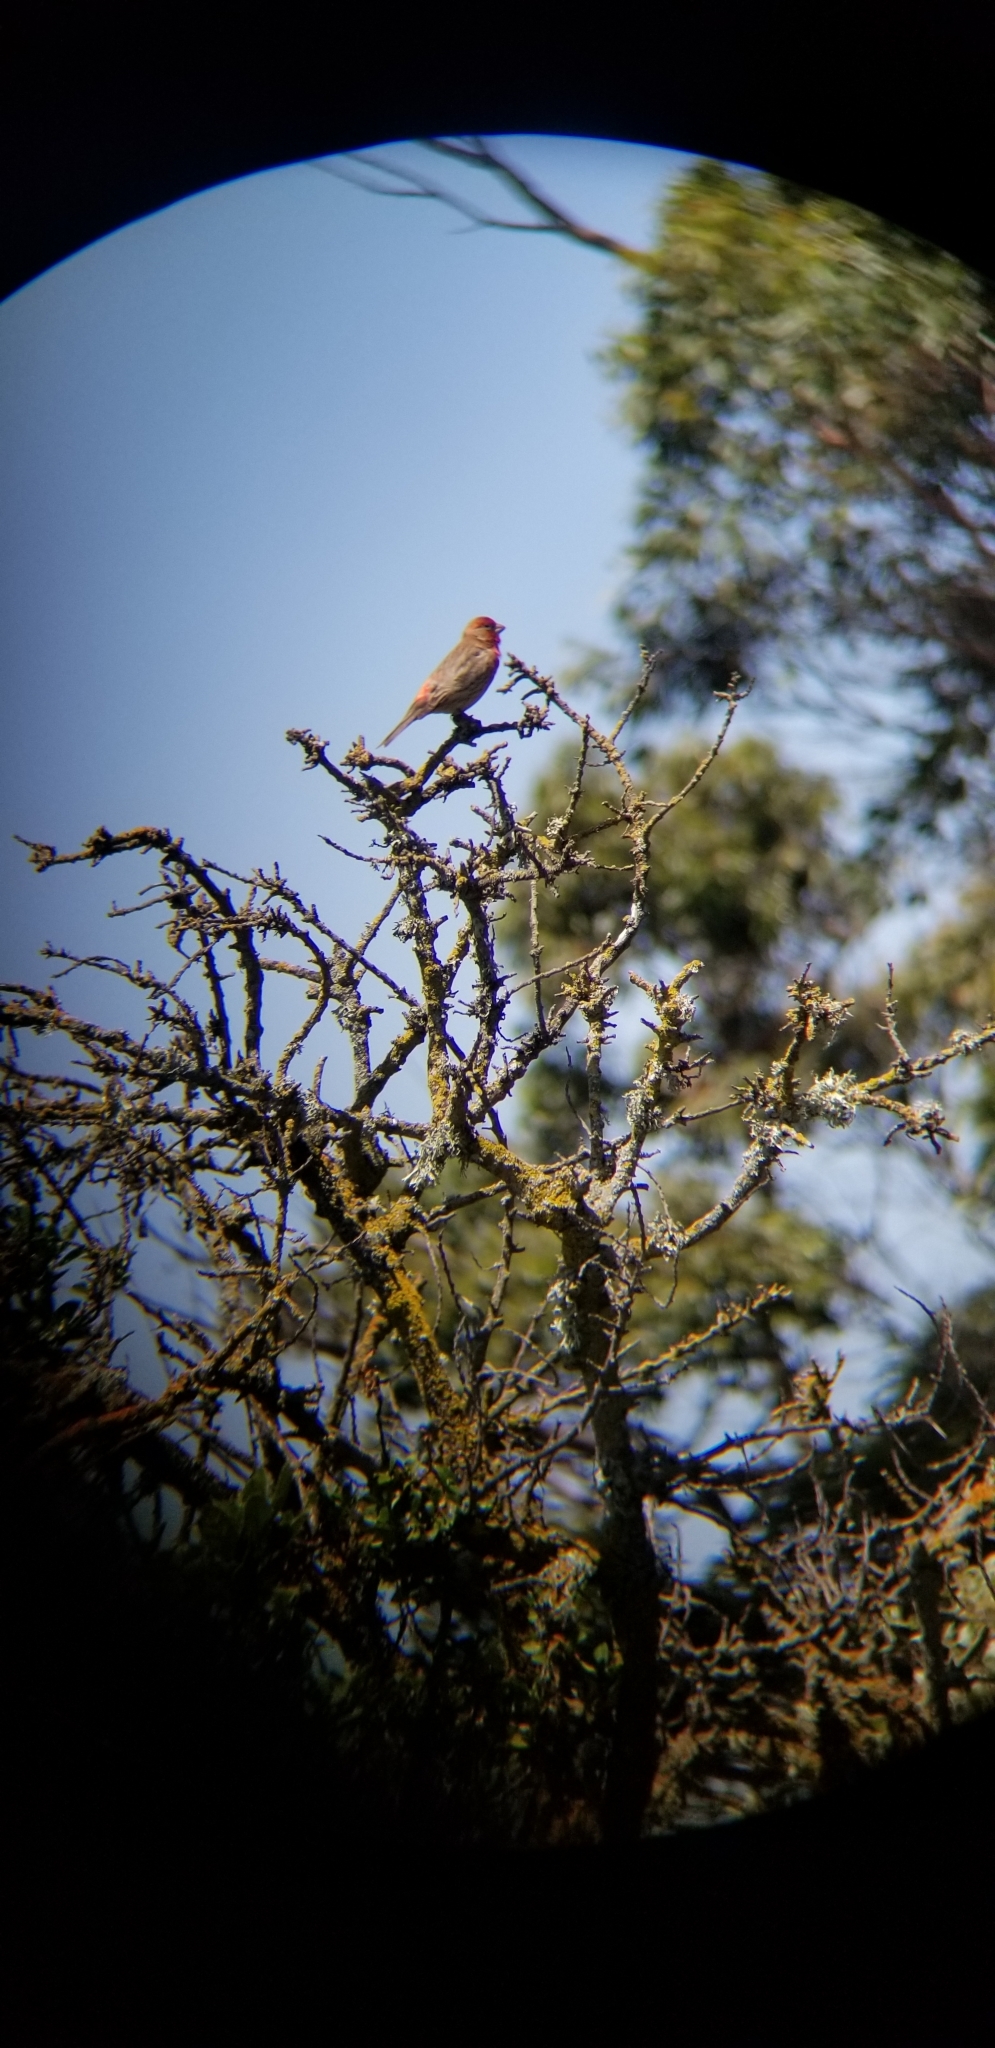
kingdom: Animalia
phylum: Chordata
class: Aves
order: Passeriformes
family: Fringillidae
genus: Haemorhous
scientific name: Haemorhous mexicanus
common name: House finch
